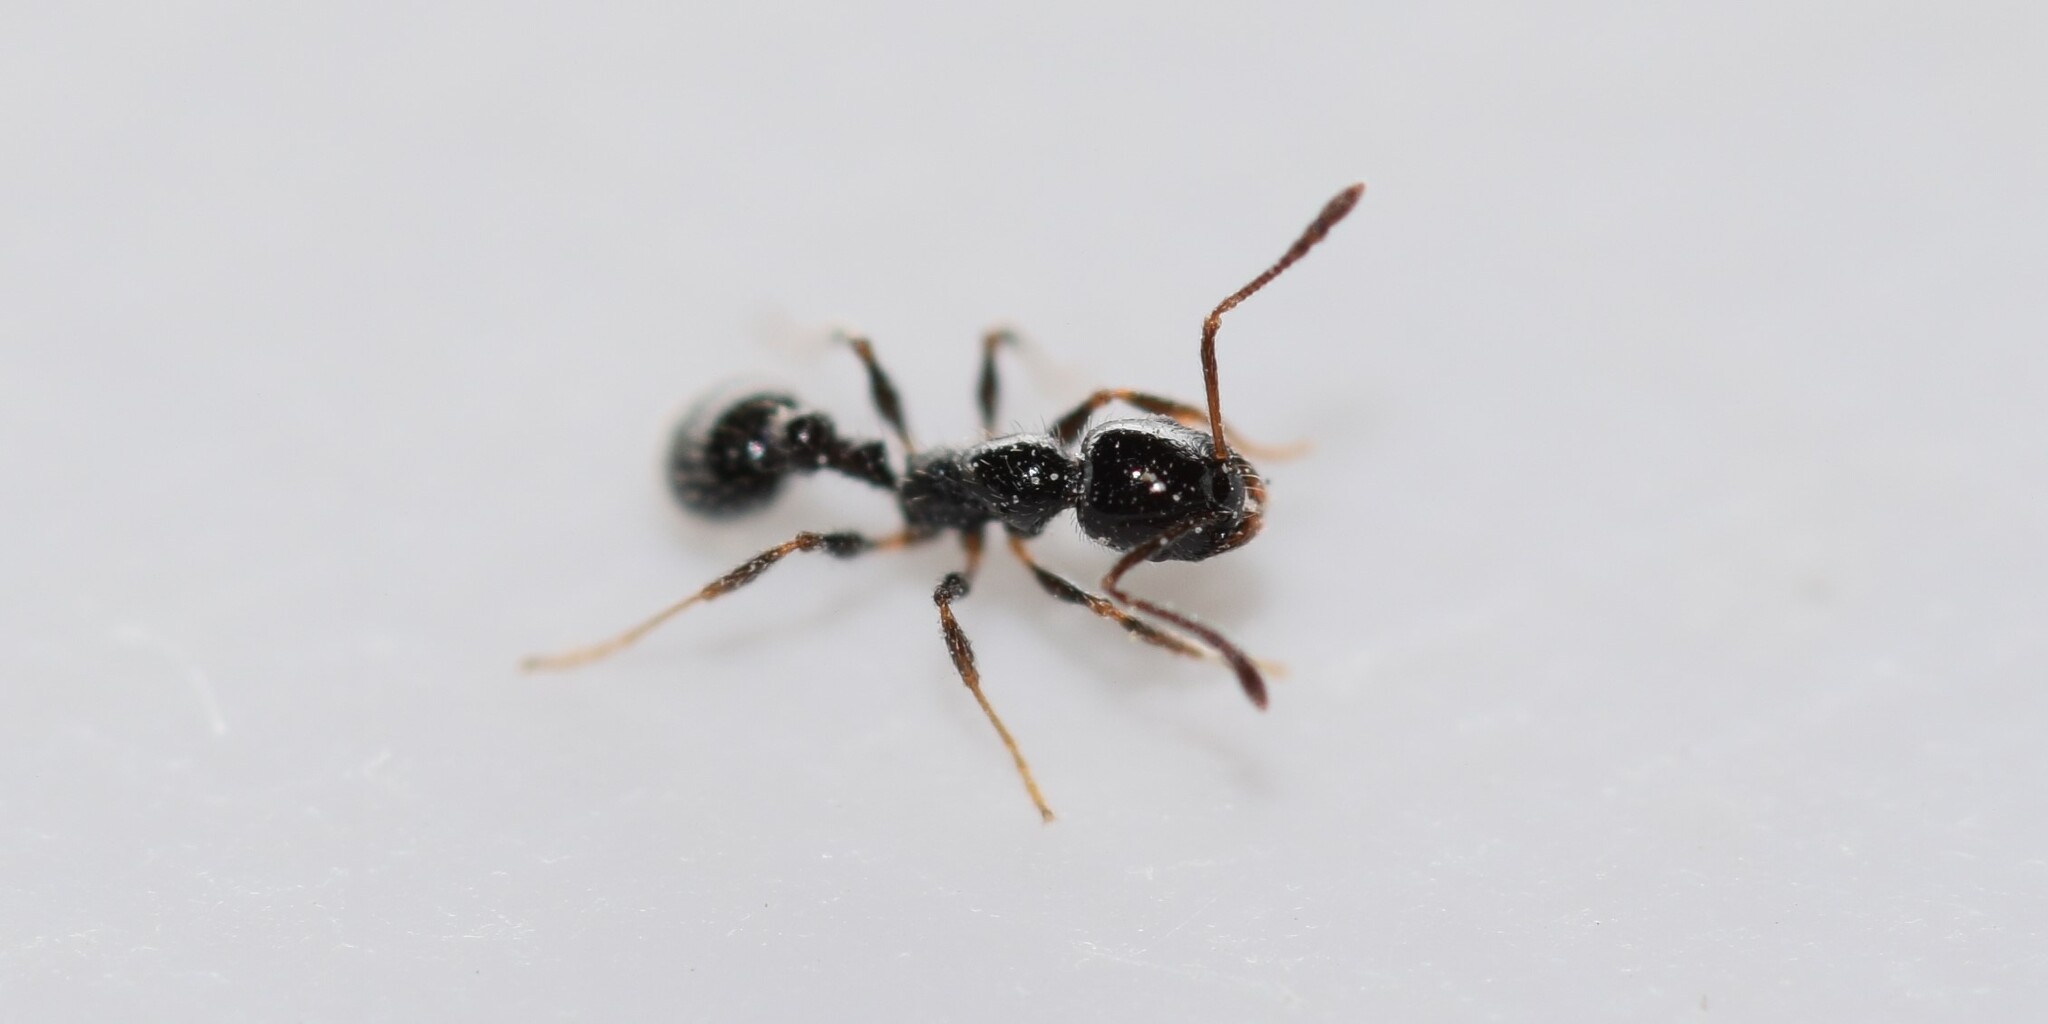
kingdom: Animalia
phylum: Arthropoda
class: Insecta
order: Hymenoptera
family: Formicidae
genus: Temnothorax
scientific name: Temnothorax pergandei
